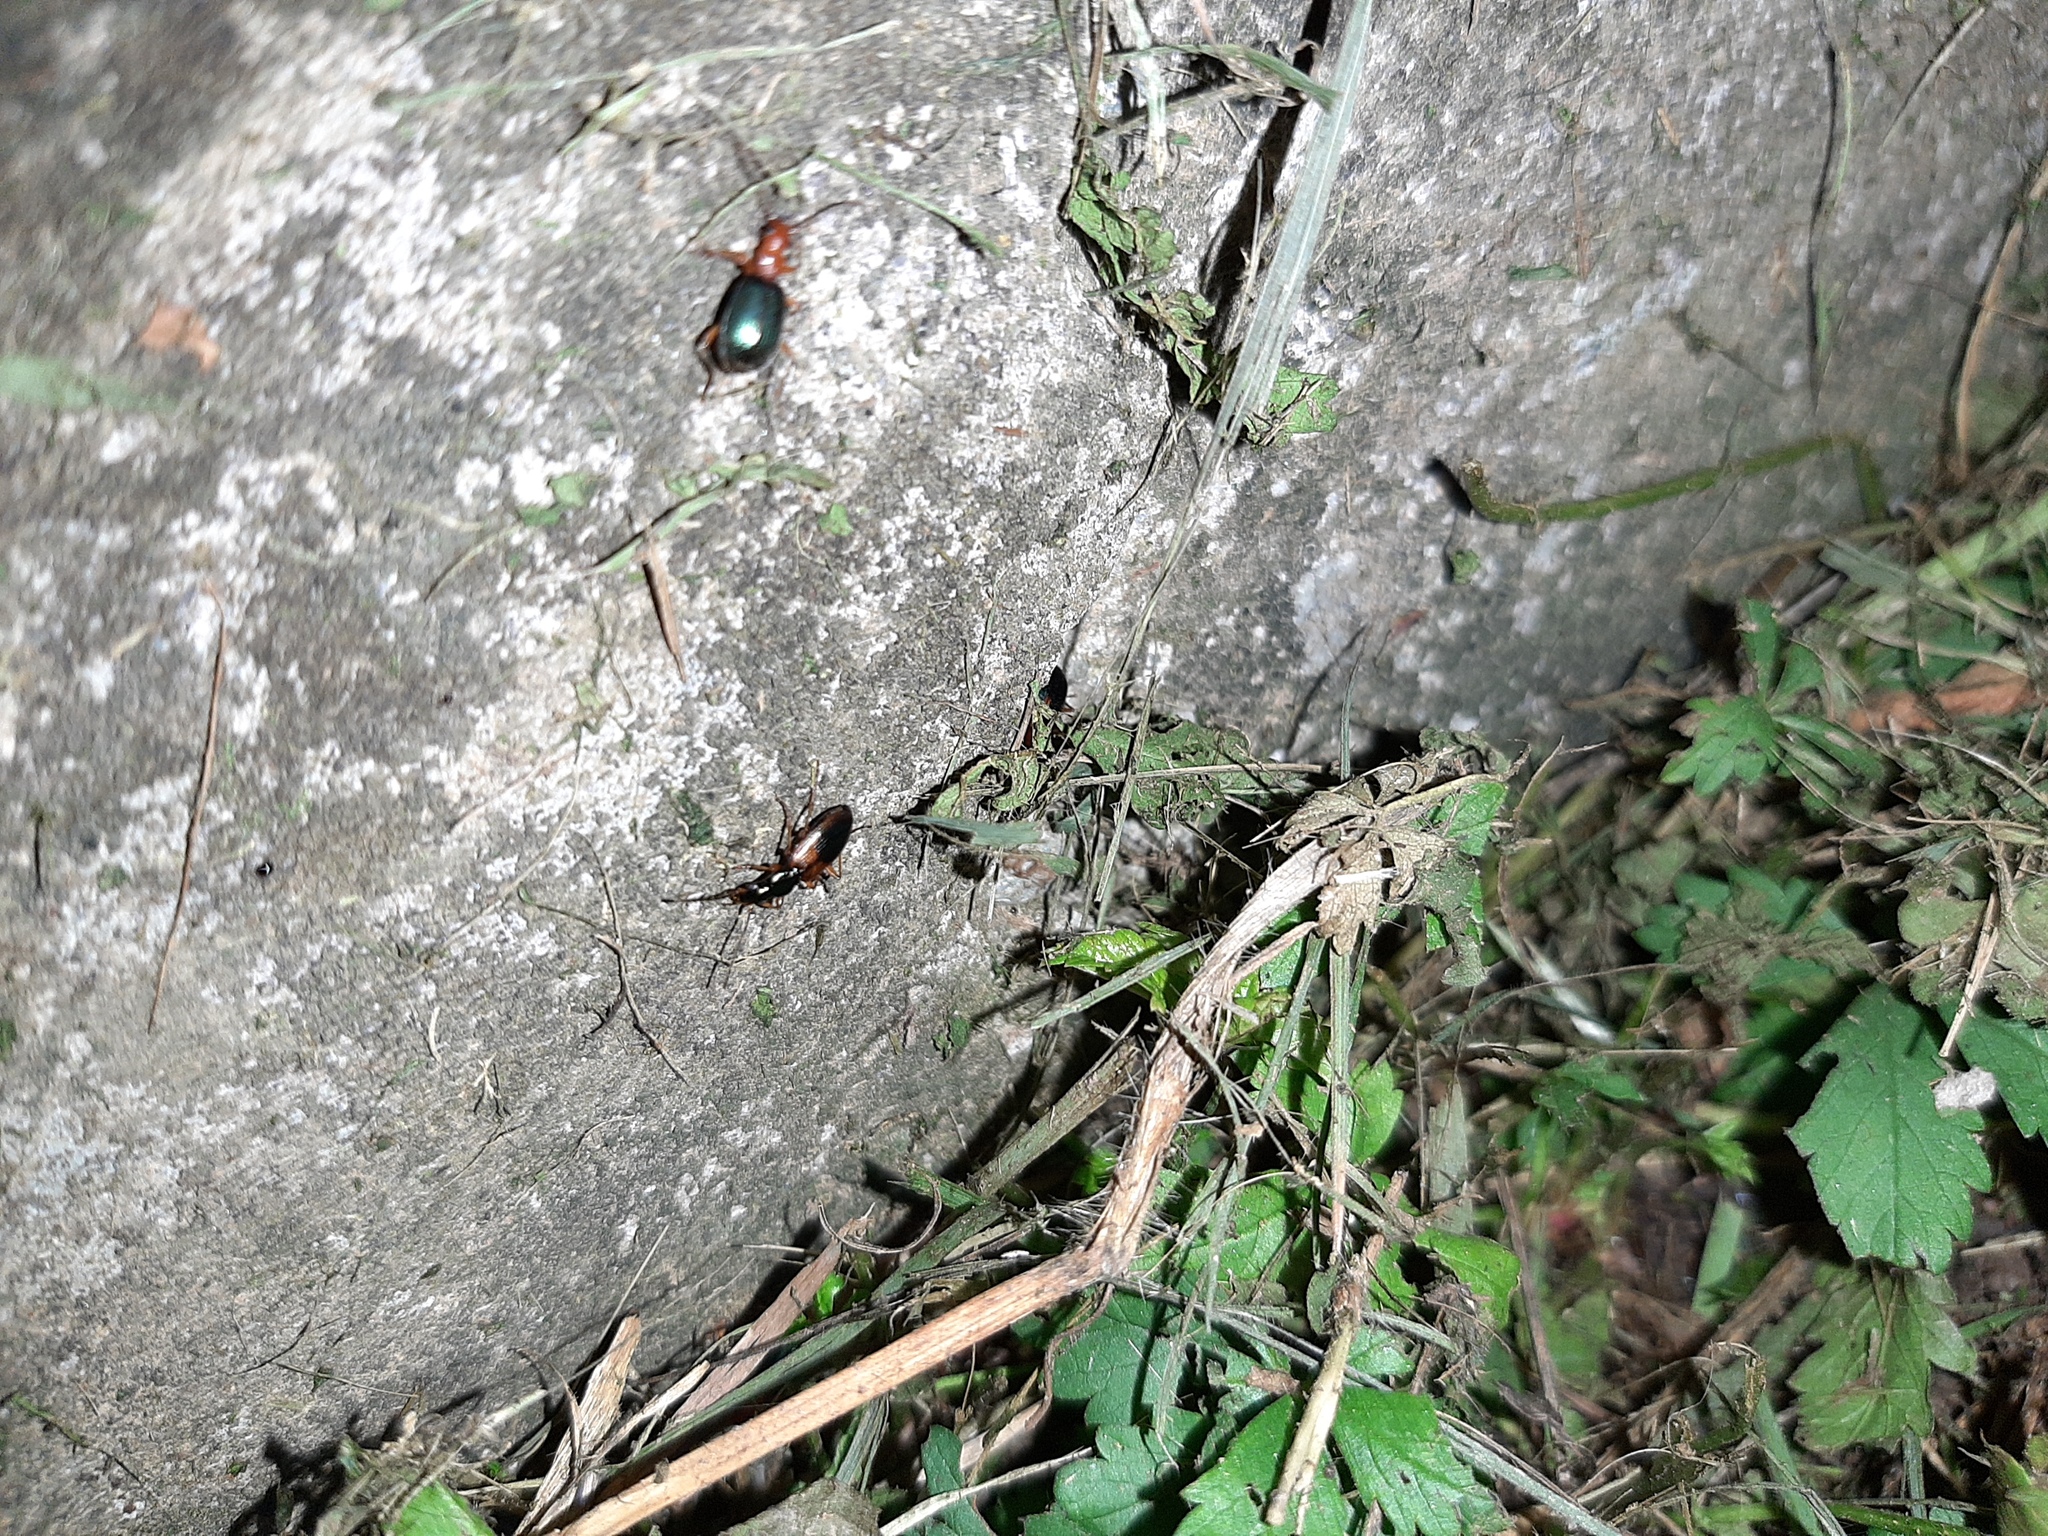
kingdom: Animalia
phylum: Arthropoda
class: Insecta
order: Coleoptera
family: Carabidae
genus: Anchomenus
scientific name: Anchomenus dorsalis
